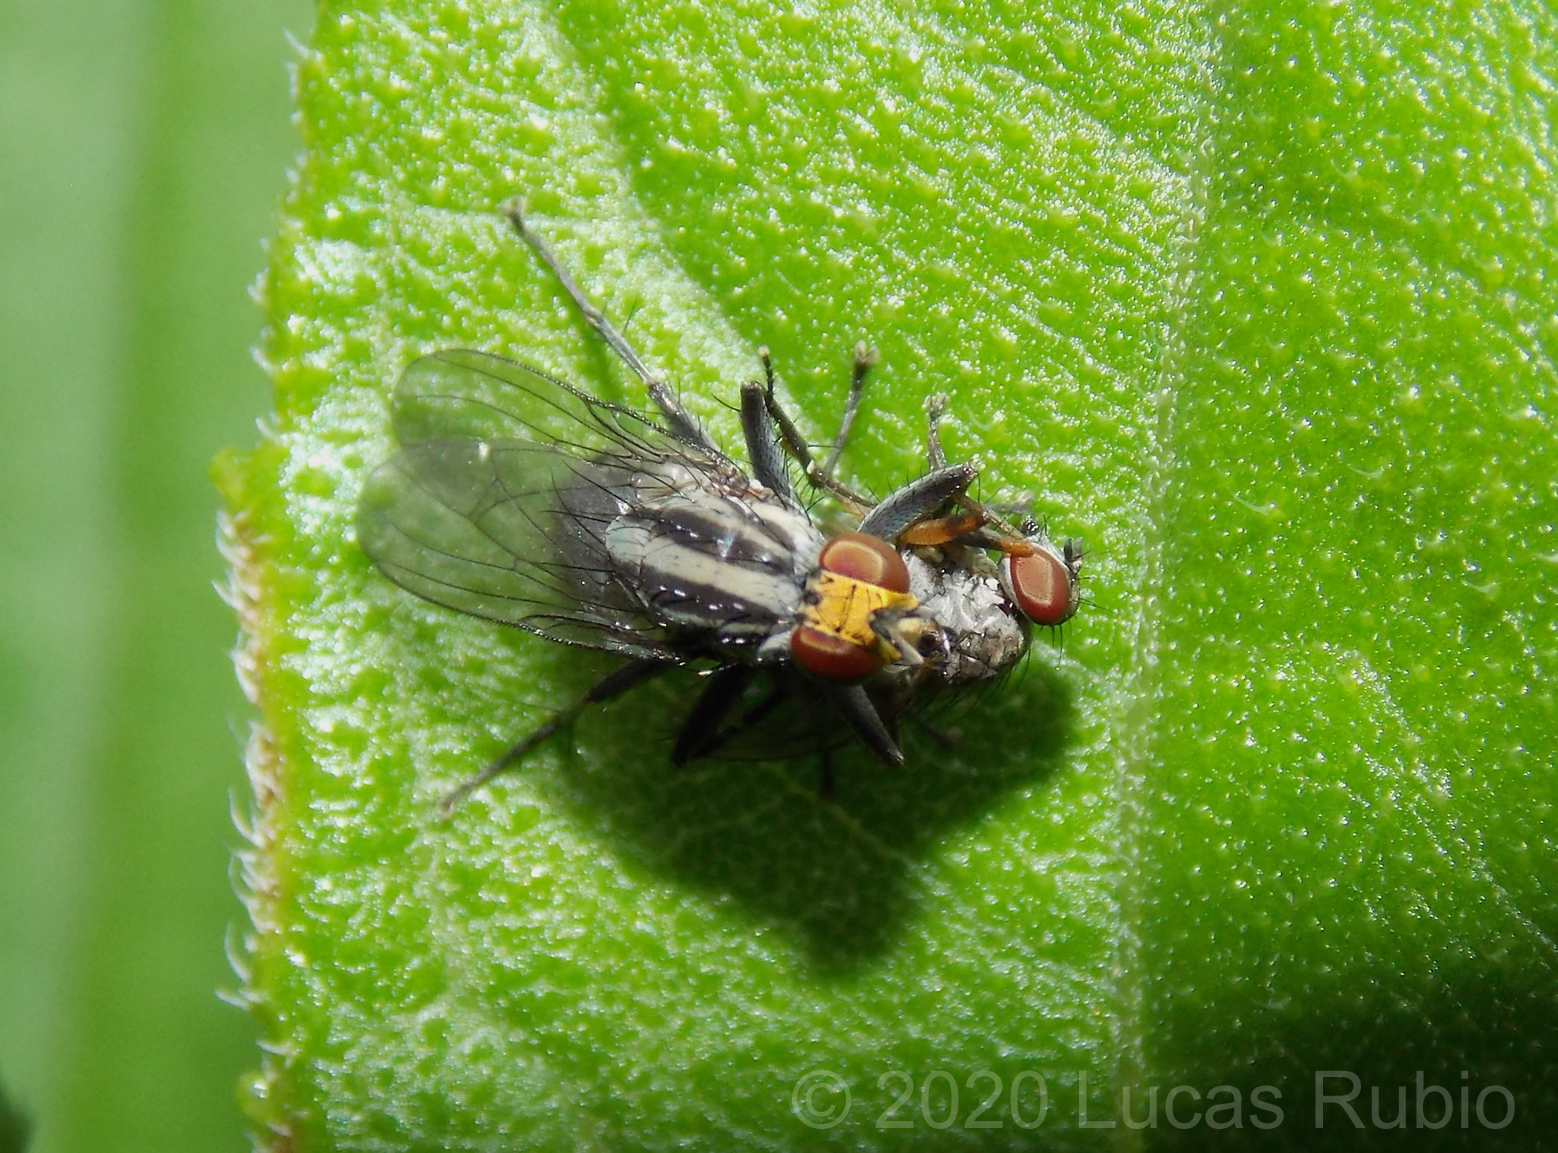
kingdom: Animalia
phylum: Arthropoda
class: Insecta
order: Diptera
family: Muscidae
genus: Neodexiopsis
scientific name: Neodexiopsis paulistensis
